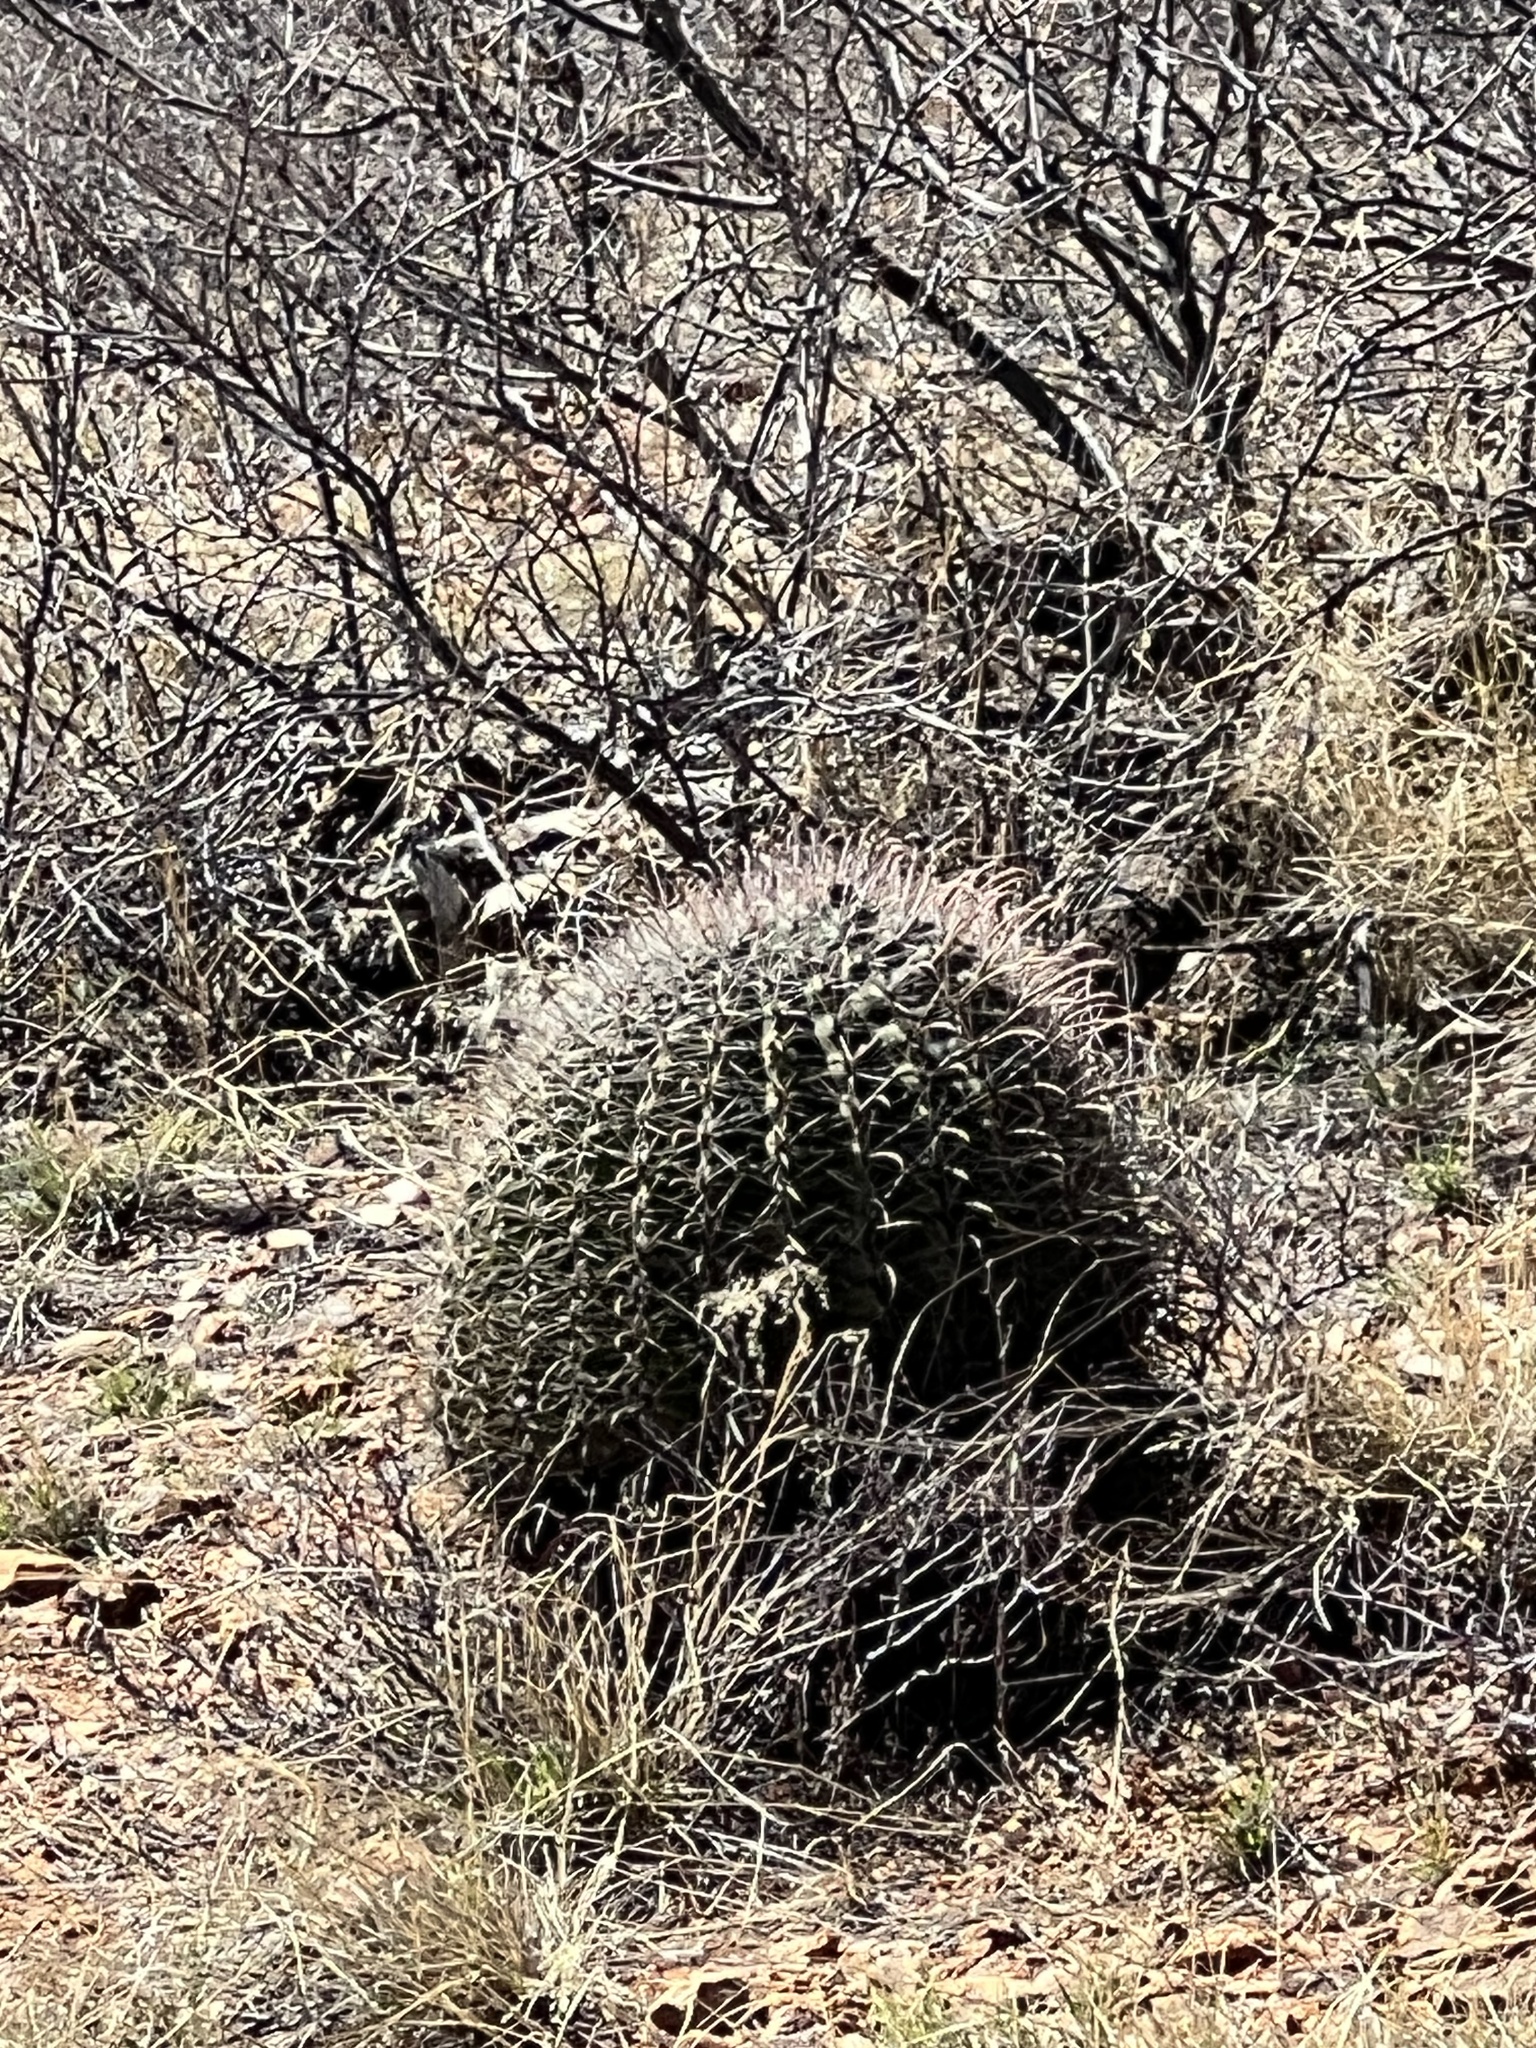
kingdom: Plantae
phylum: Tracheophyta
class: Magnoliopsida
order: Caryophyllales
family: Cactaceae
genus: Ferocactus
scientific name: Ferocactus wislizeni
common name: Candy barrel cactus
